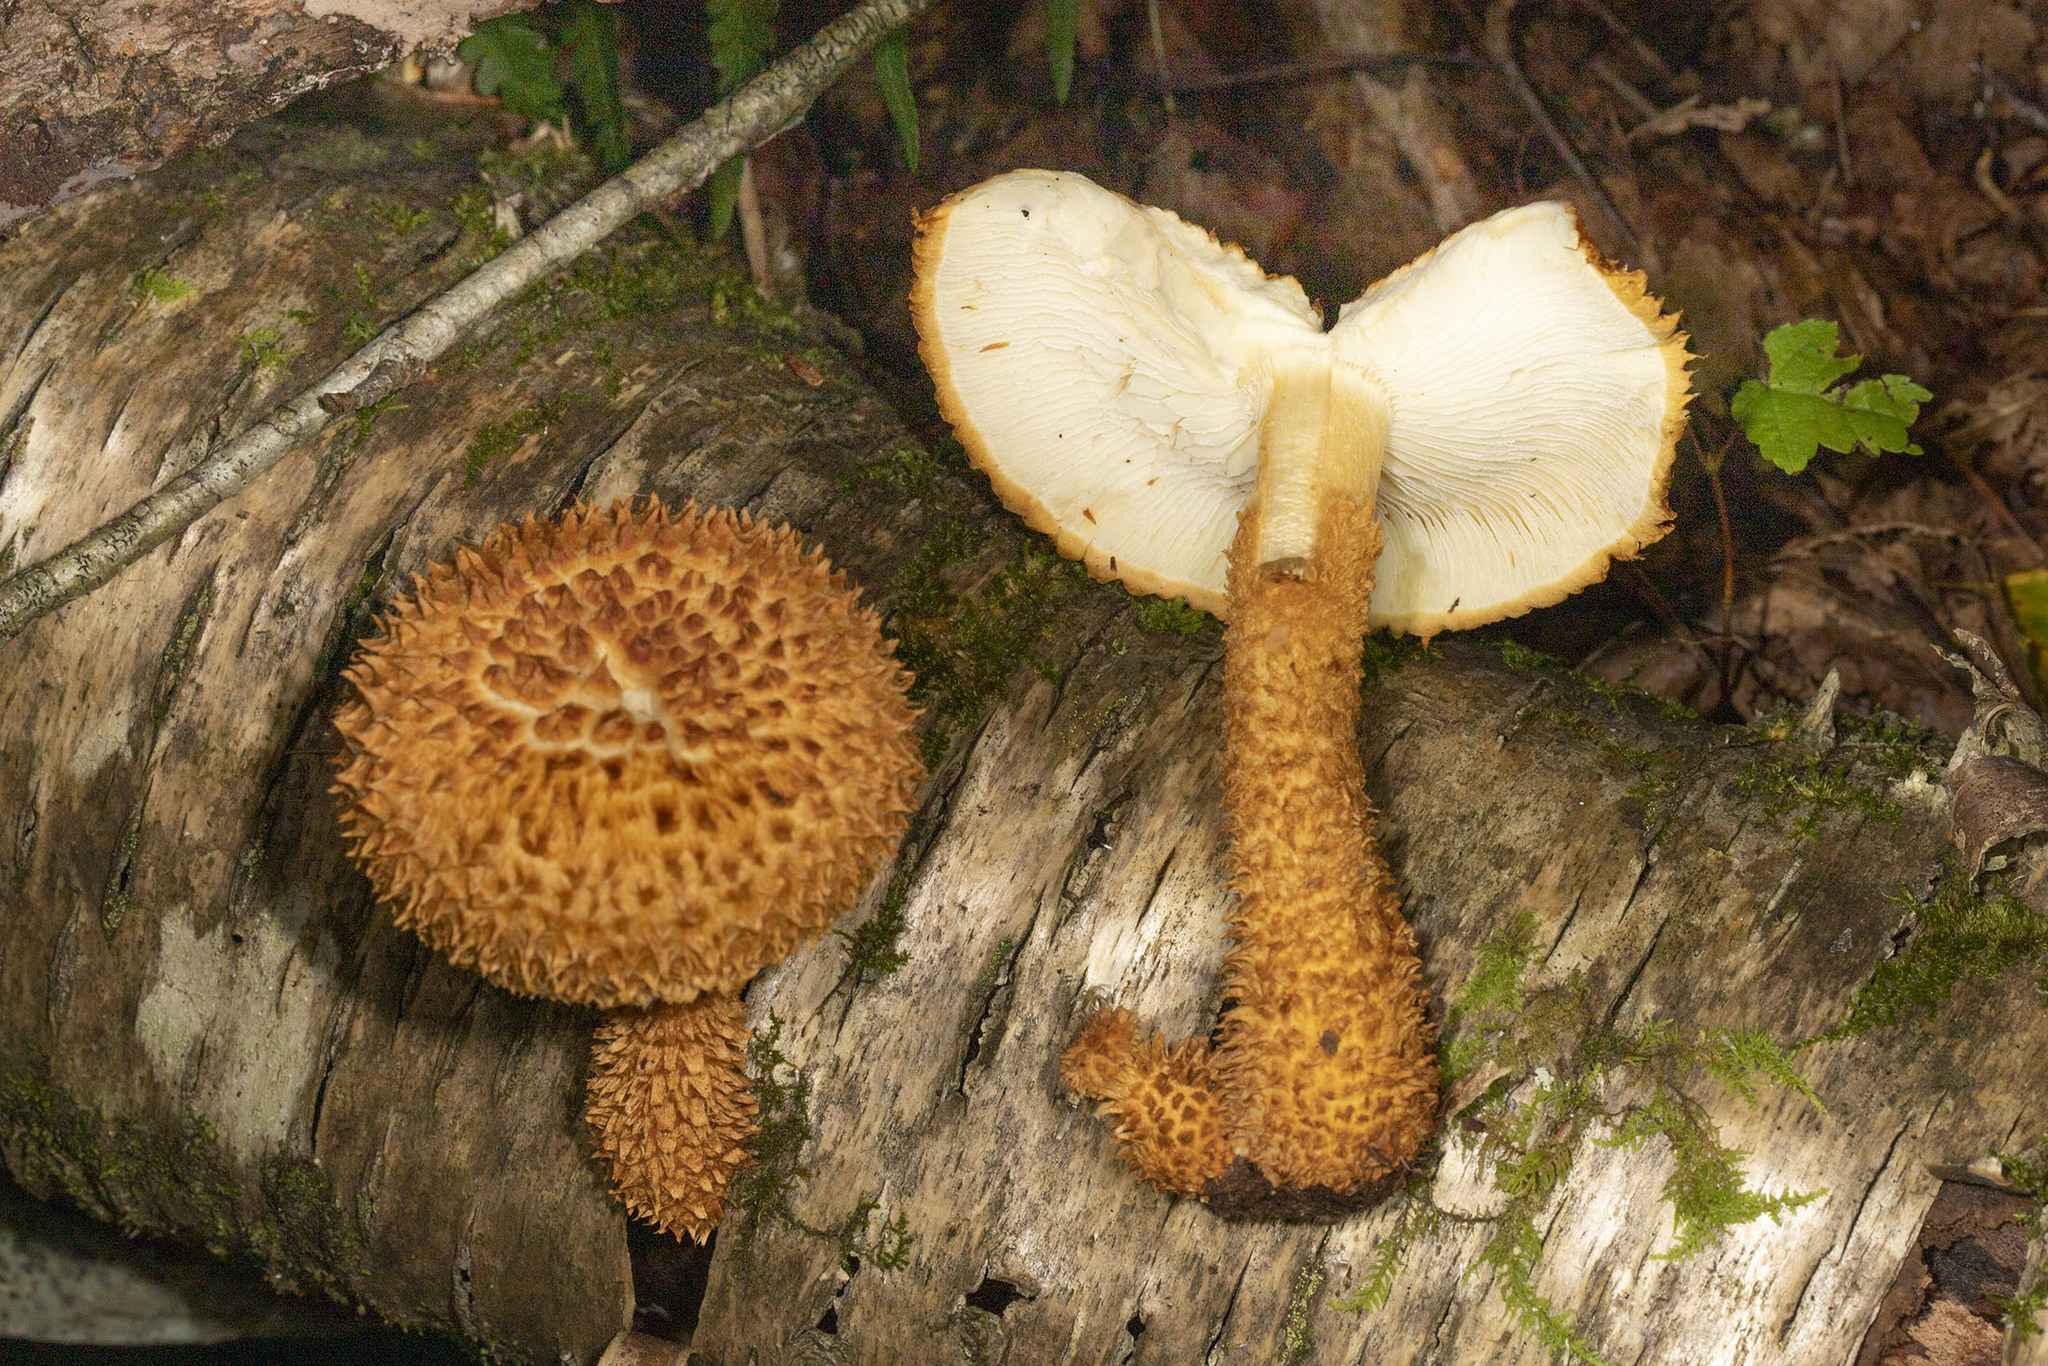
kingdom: Fungi
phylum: Basidiomycota
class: Agaricomycetes
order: Agaricales
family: Agaricaceae
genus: Leucopholiota
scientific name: Leucopholiota decorosa
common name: Decorated pholiota
